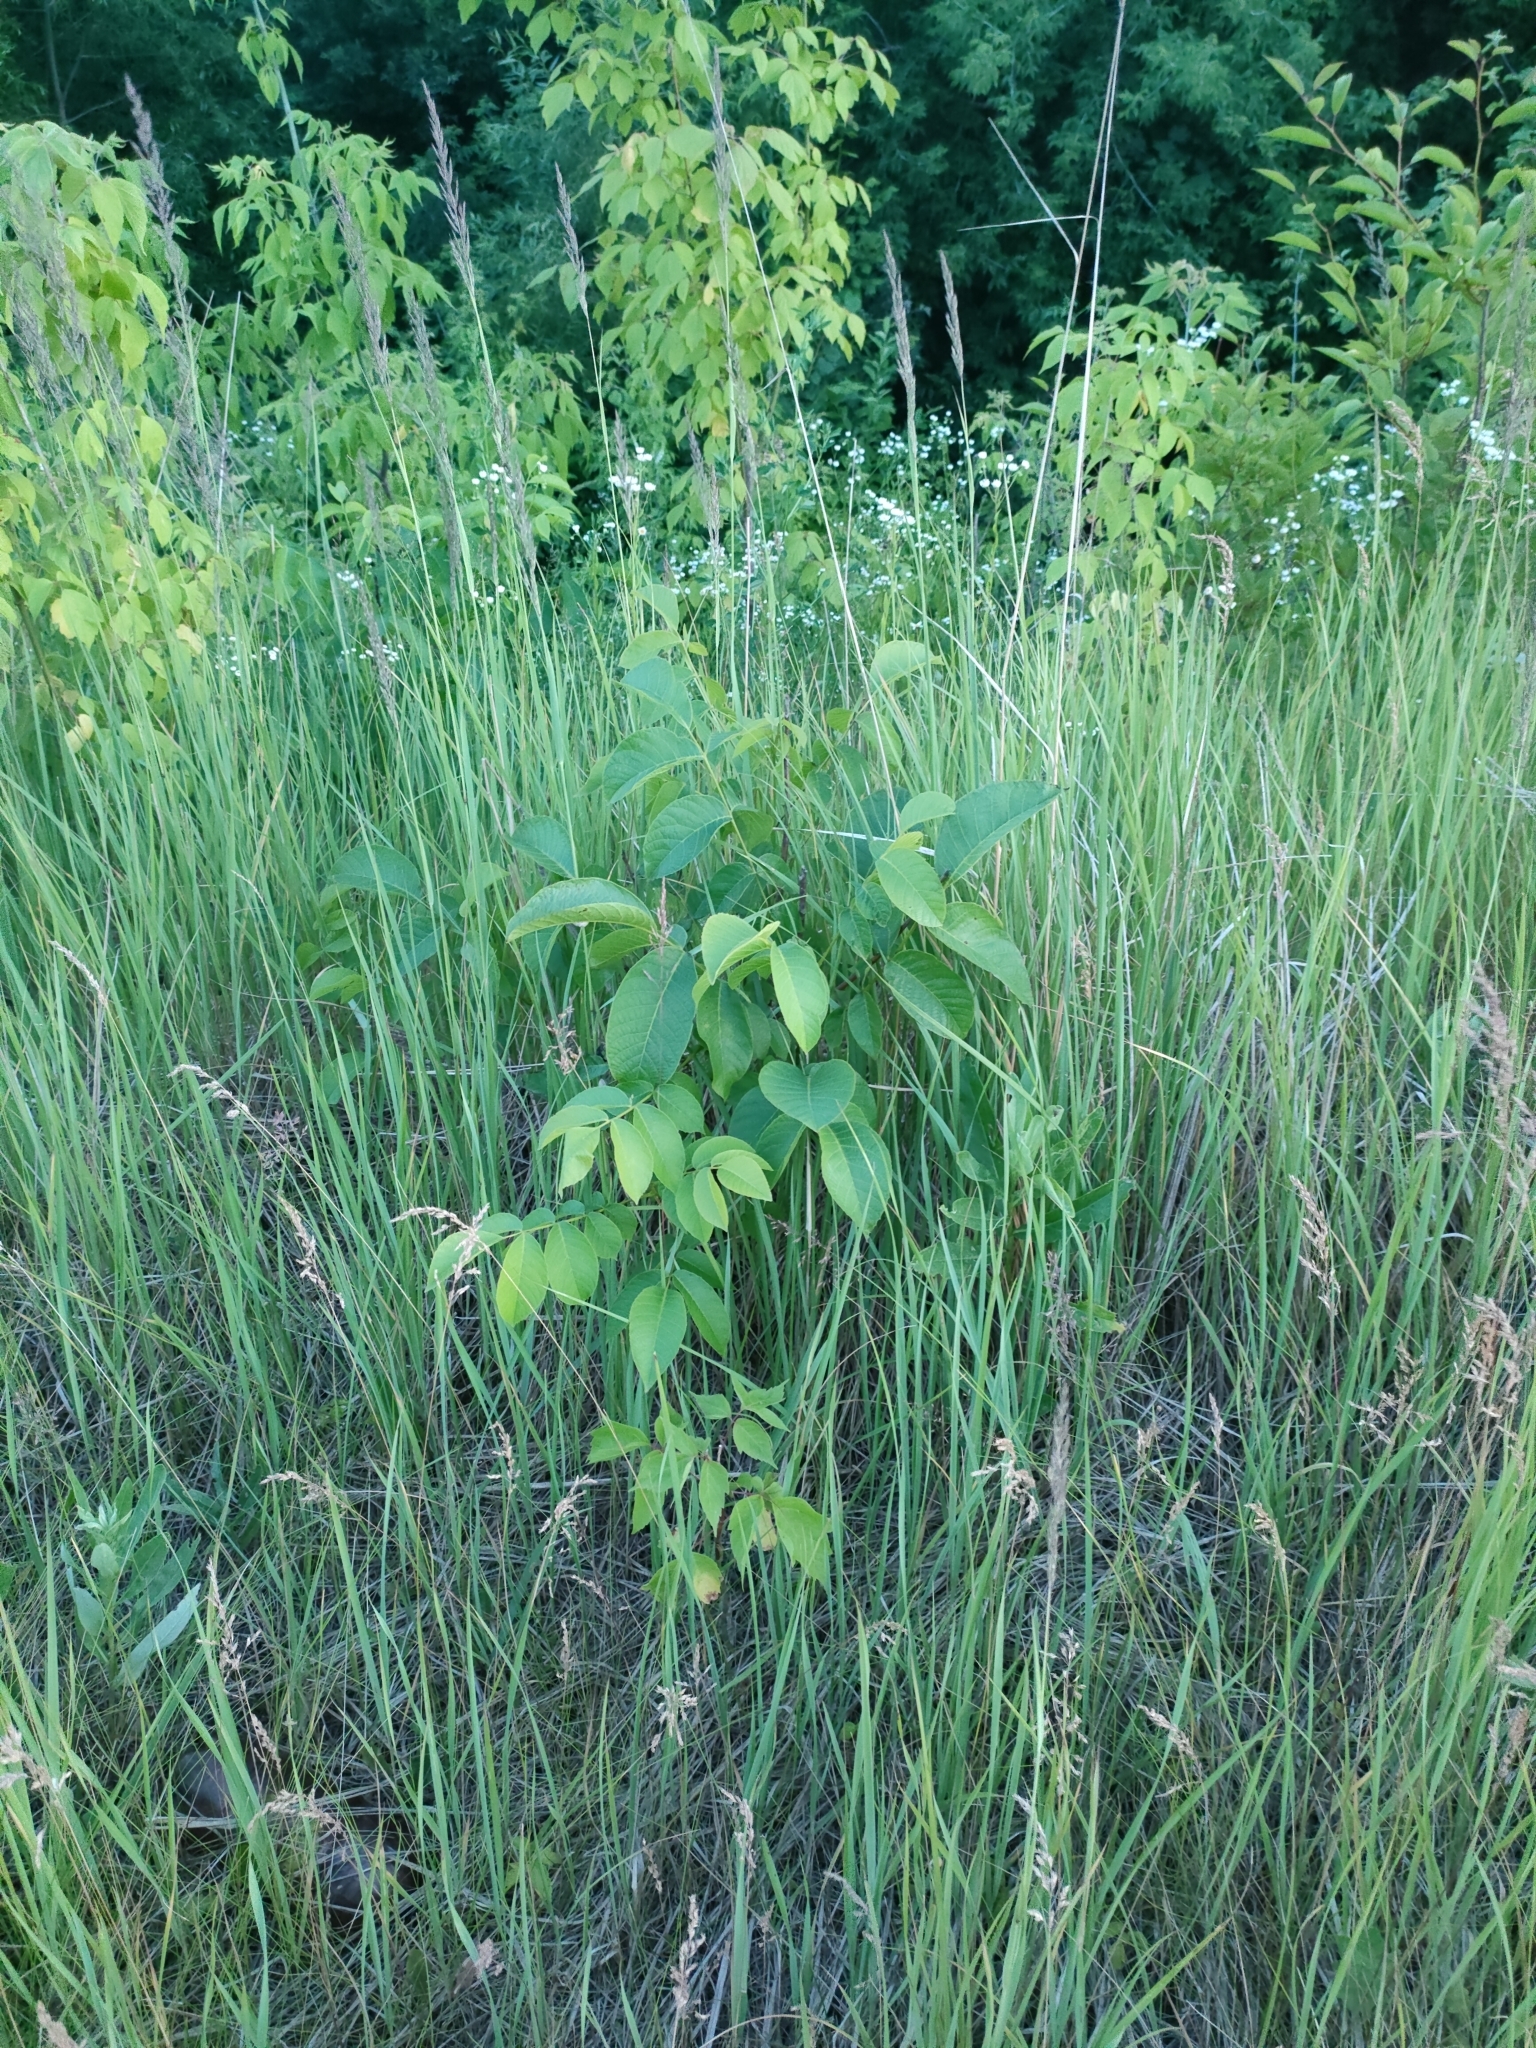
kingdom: Plantae
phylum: Tracheophyta
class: Magnoliopsida
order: Fagales
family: Juglandaceae
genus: Juglans
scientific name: Juglans regia
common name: Walnut
